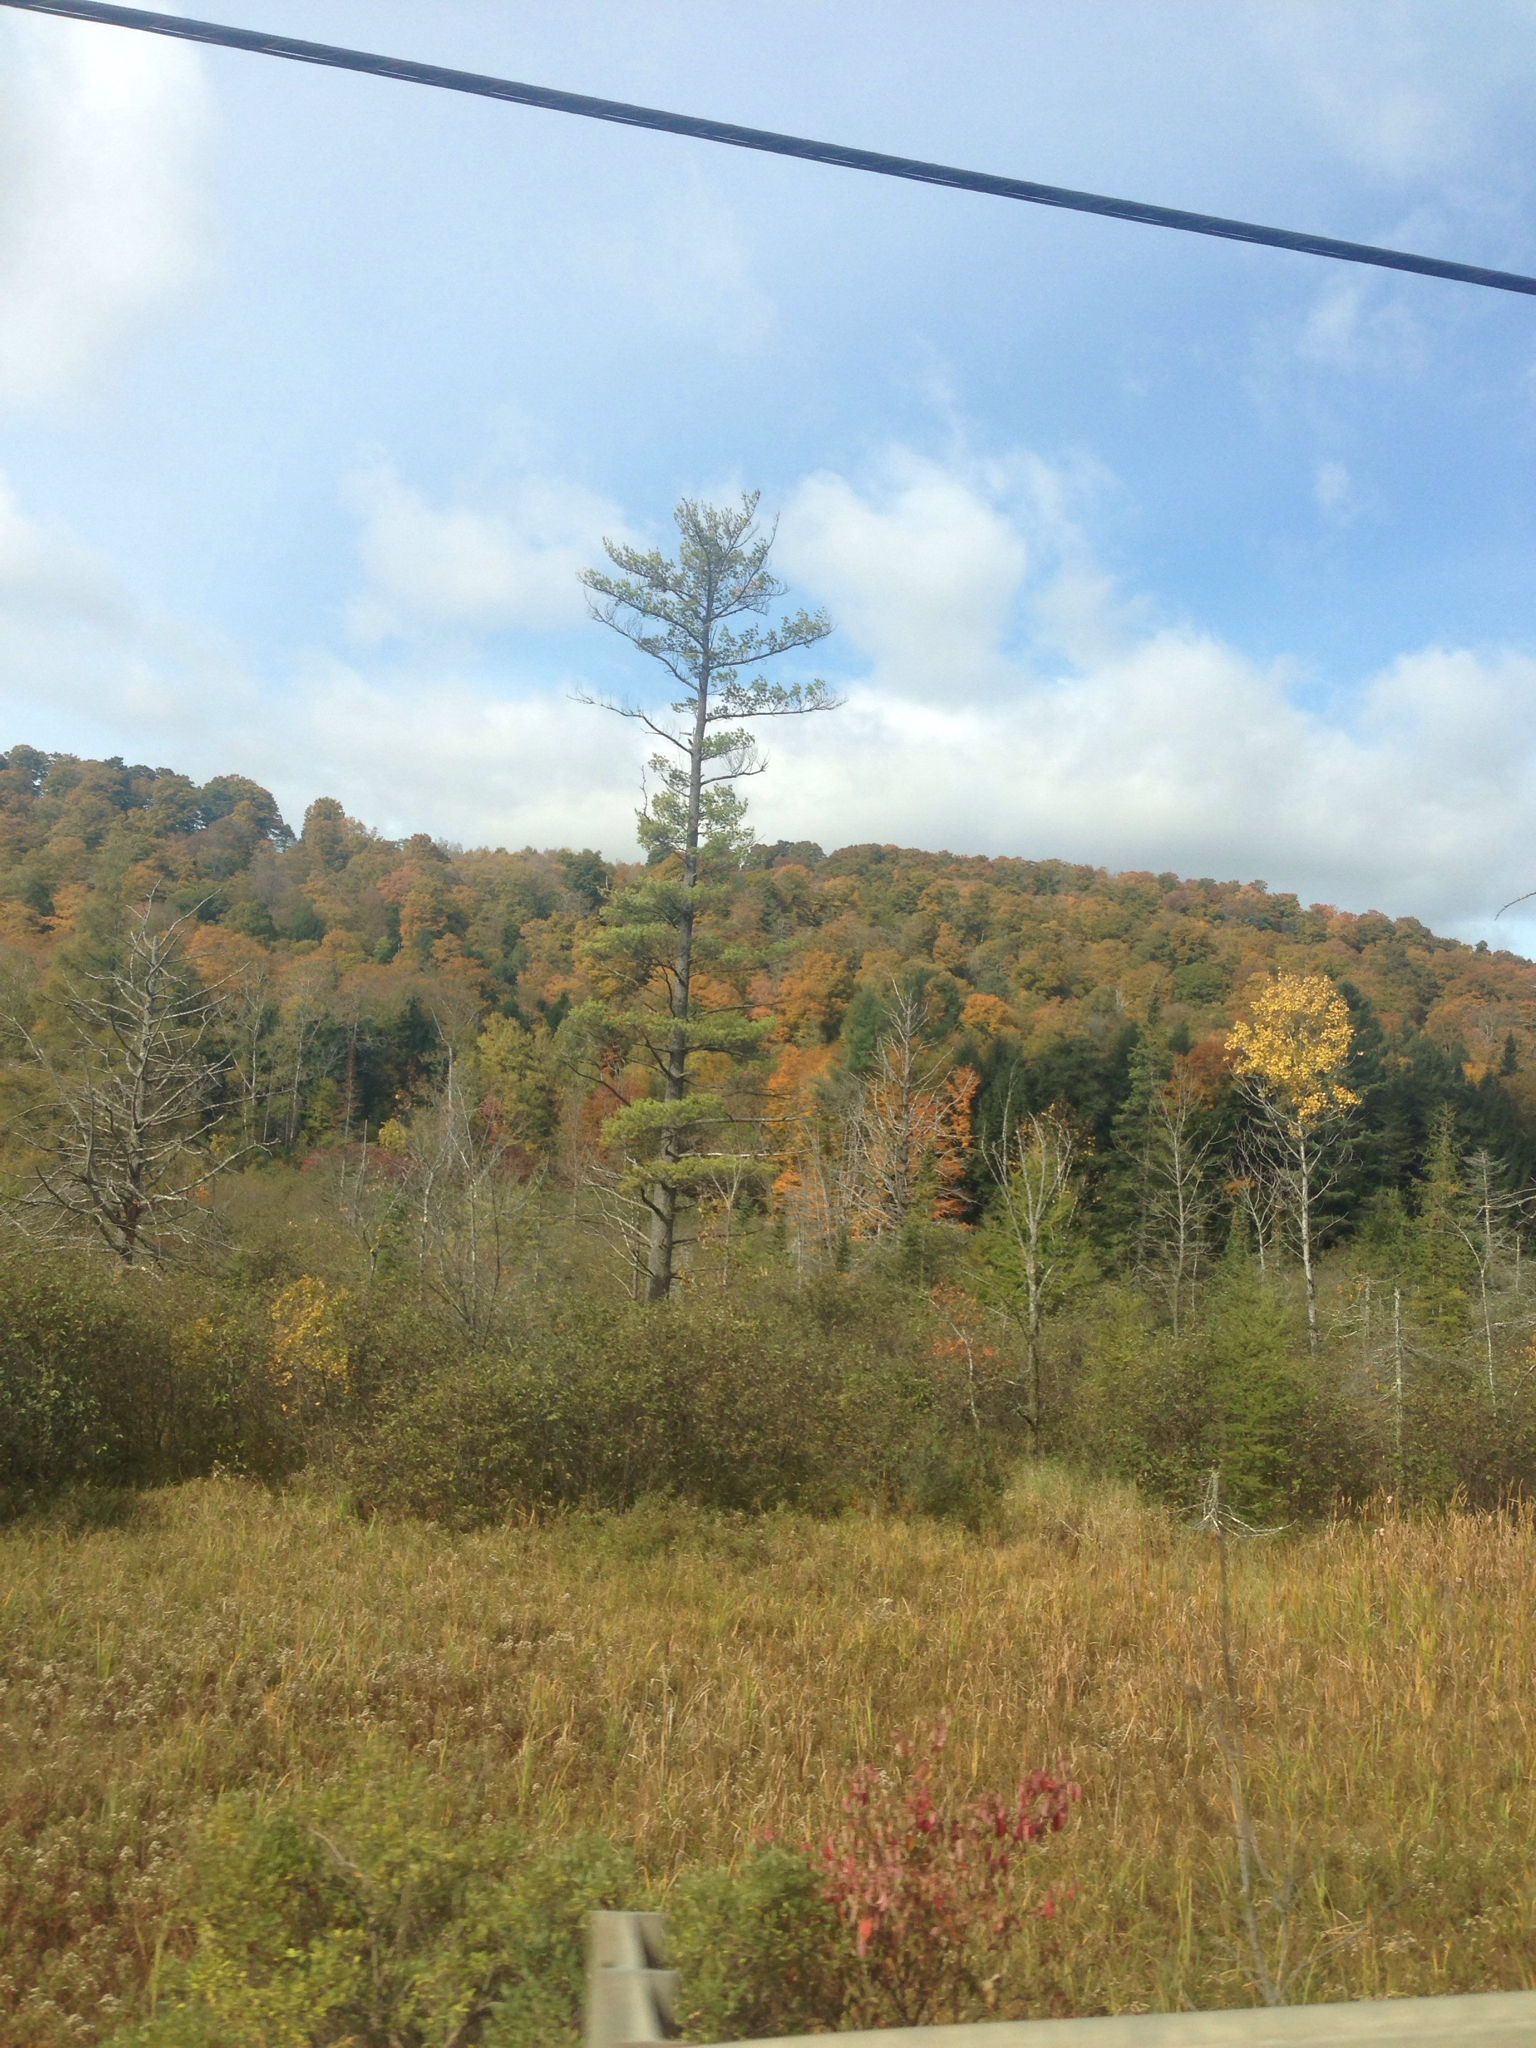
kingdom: Plantae
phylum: Tracheophyta
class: Pinopsida
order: Pinales
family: Pinaceae
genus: Pinus
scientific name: Pinus strobus
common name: Weymouth pine
